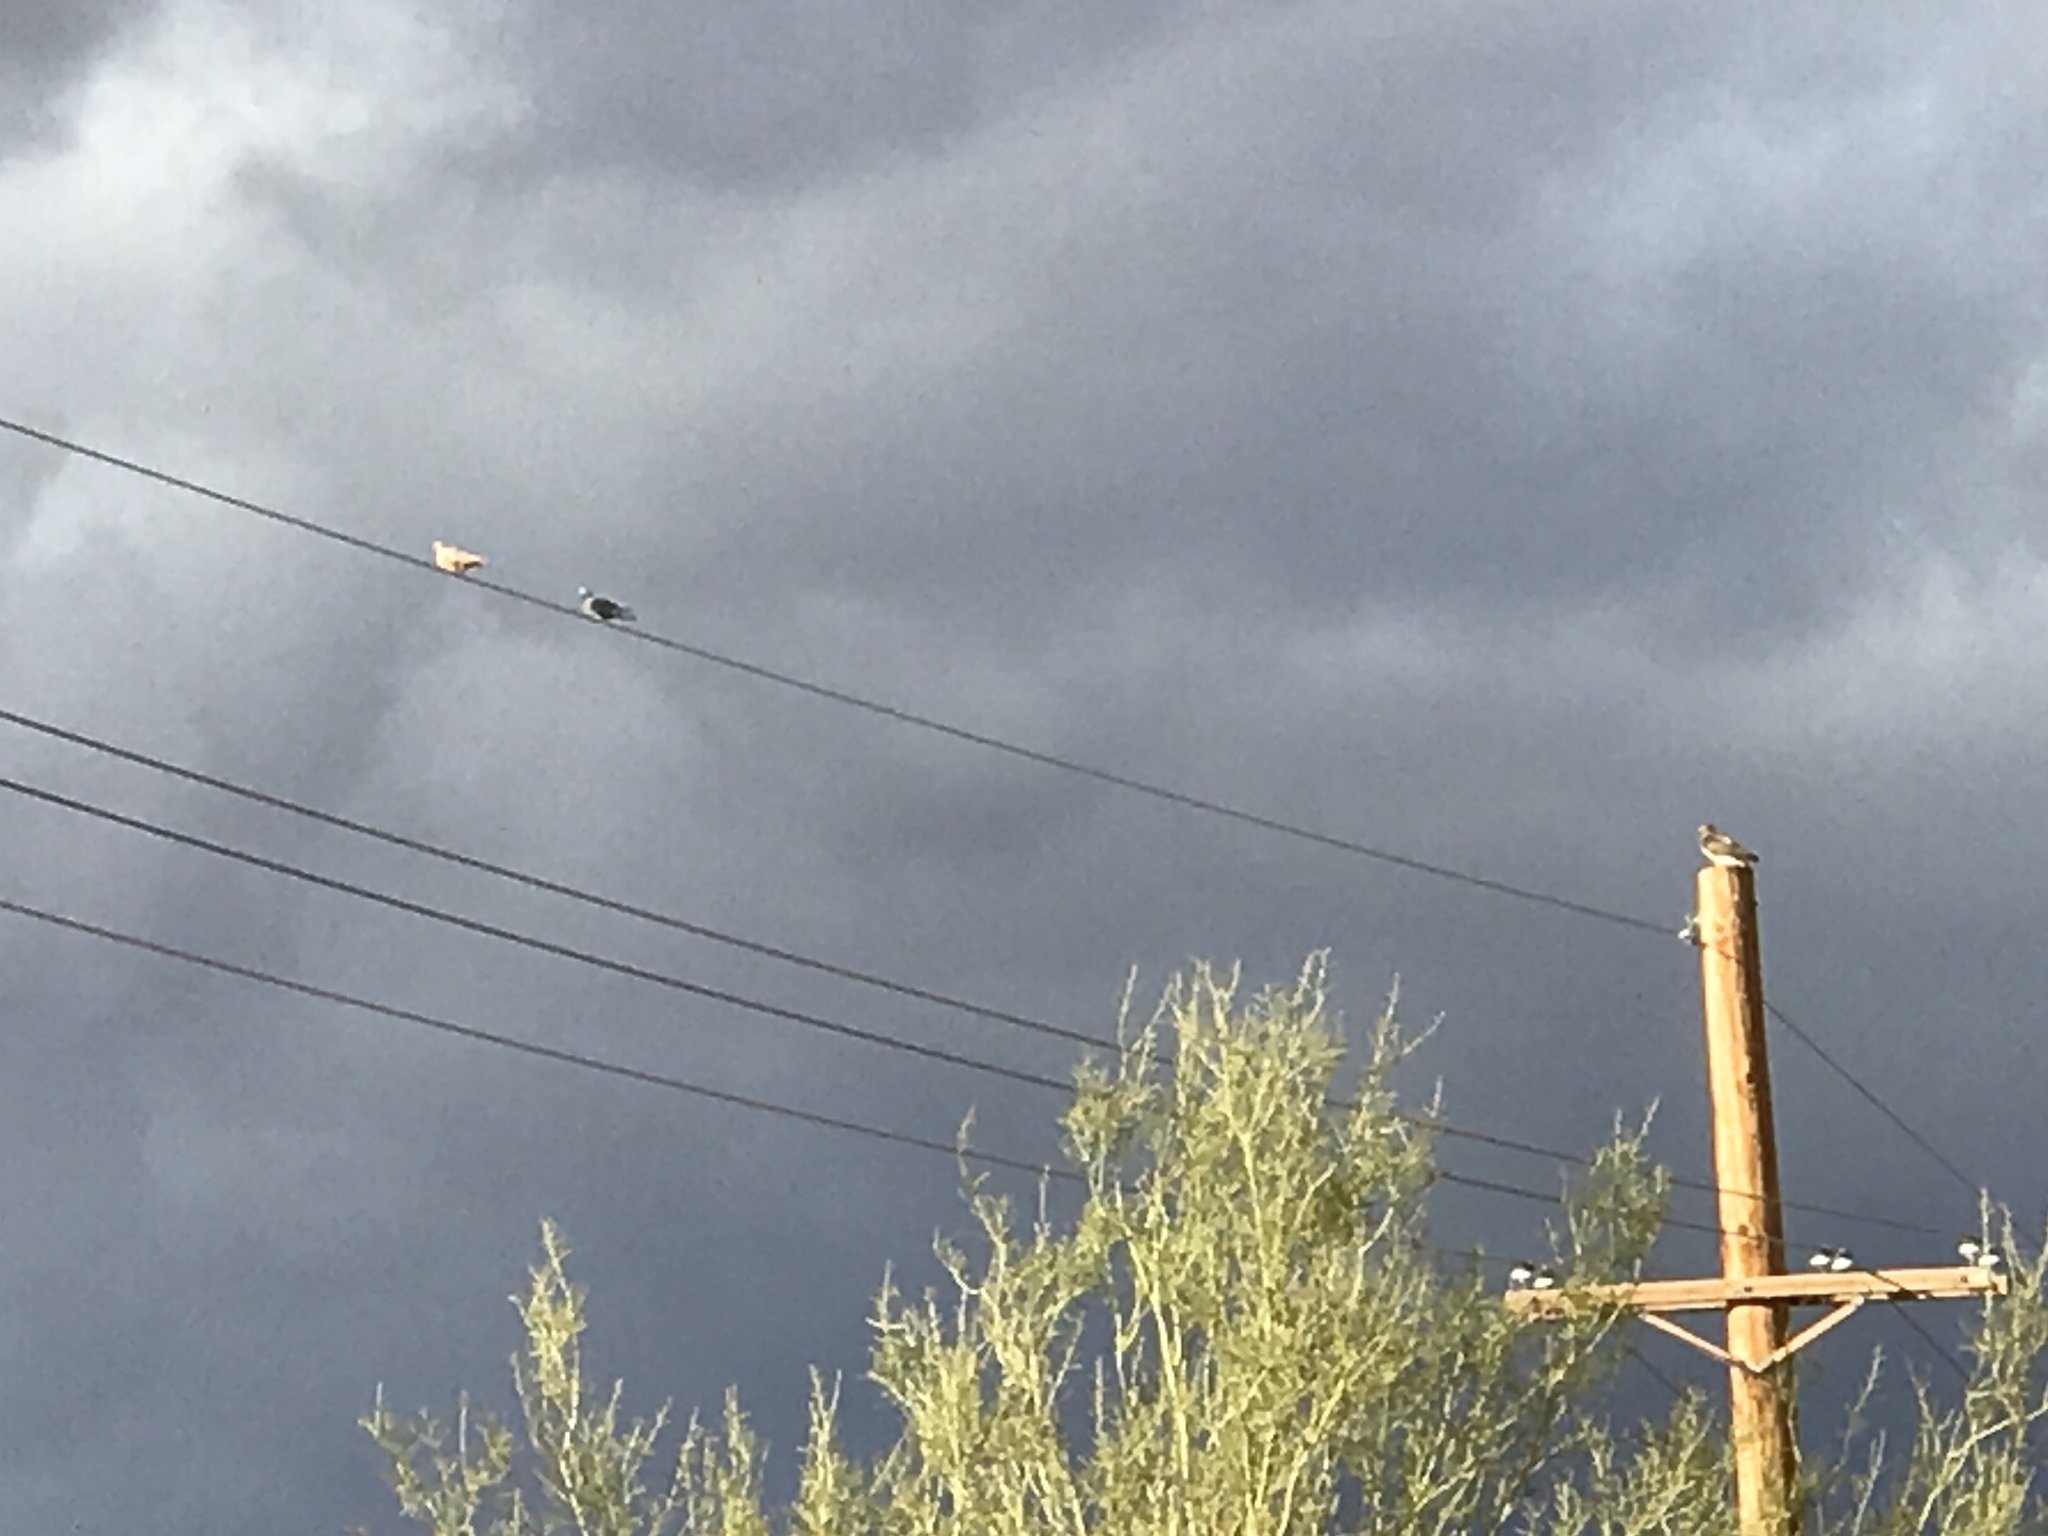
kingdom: Animalia
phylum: Chordata
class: Aves
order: Columbiformes
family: Columbidae
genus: Columba
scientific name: Columba livia
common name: Rock pigeon
